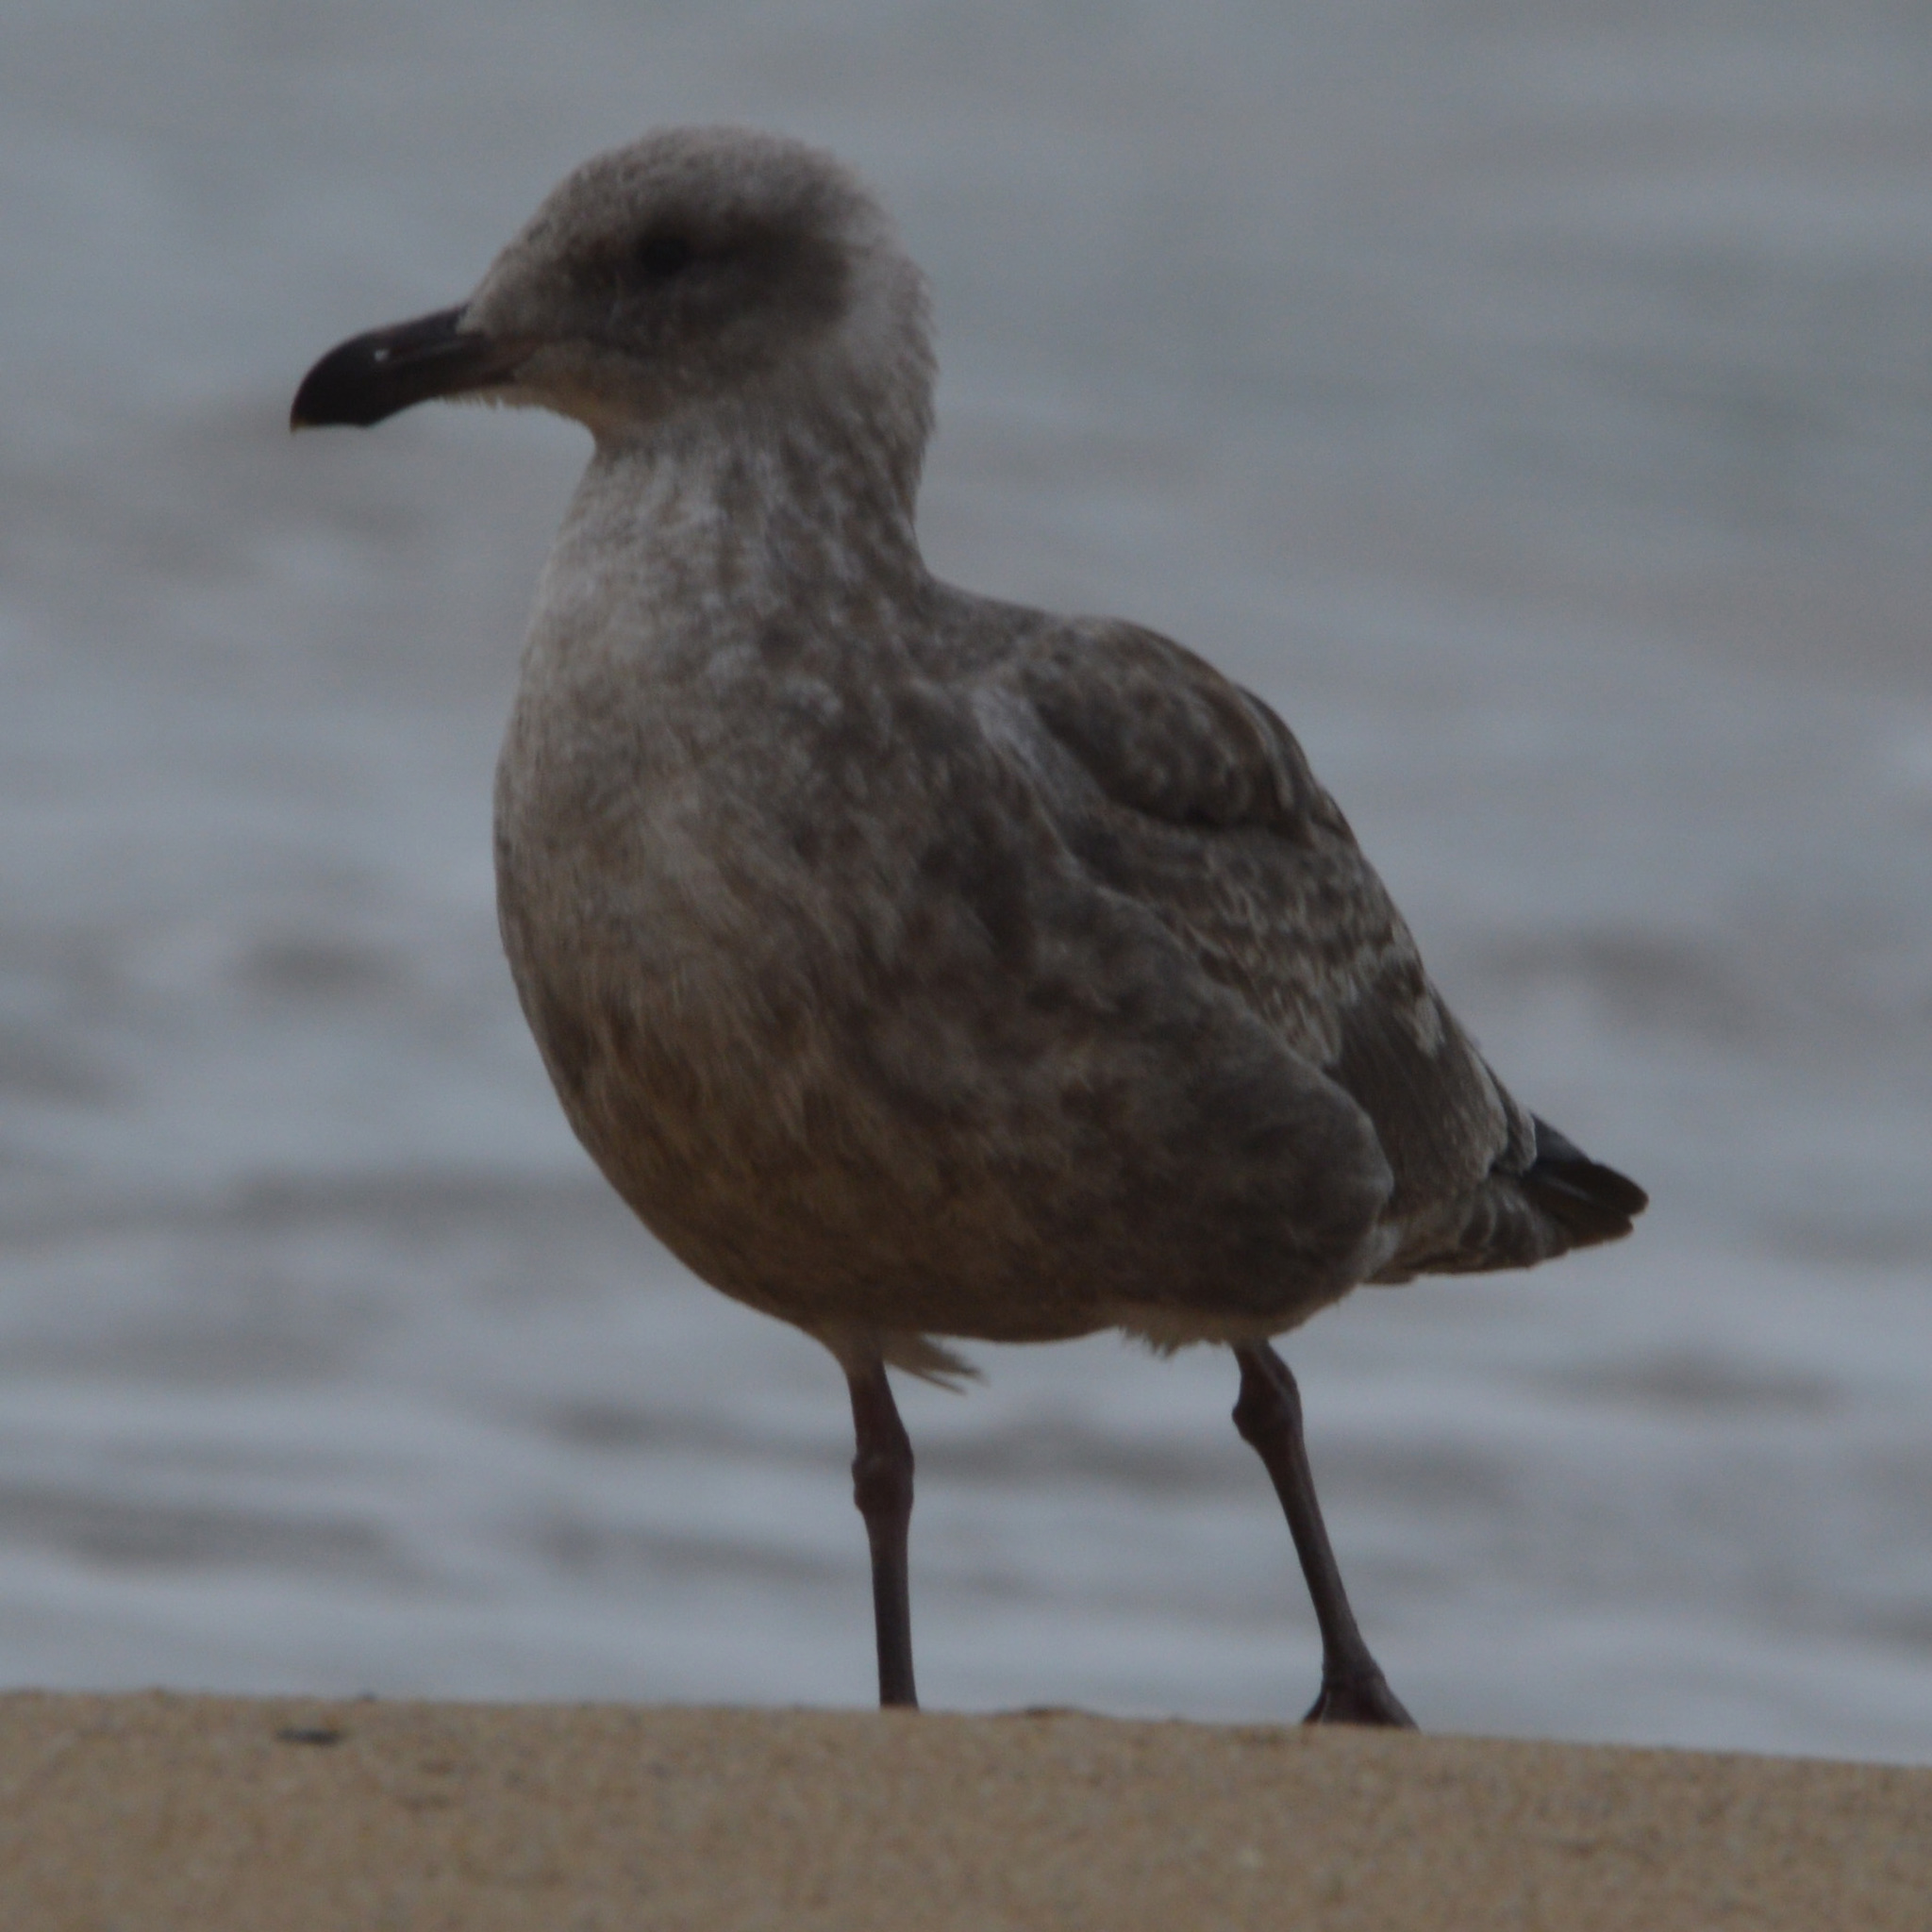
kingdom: Animalia
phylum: Chordata
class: Aves
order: Charadriiformes
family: Laridae
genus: Larus
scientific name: Larus occidentalis
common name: Western gull
